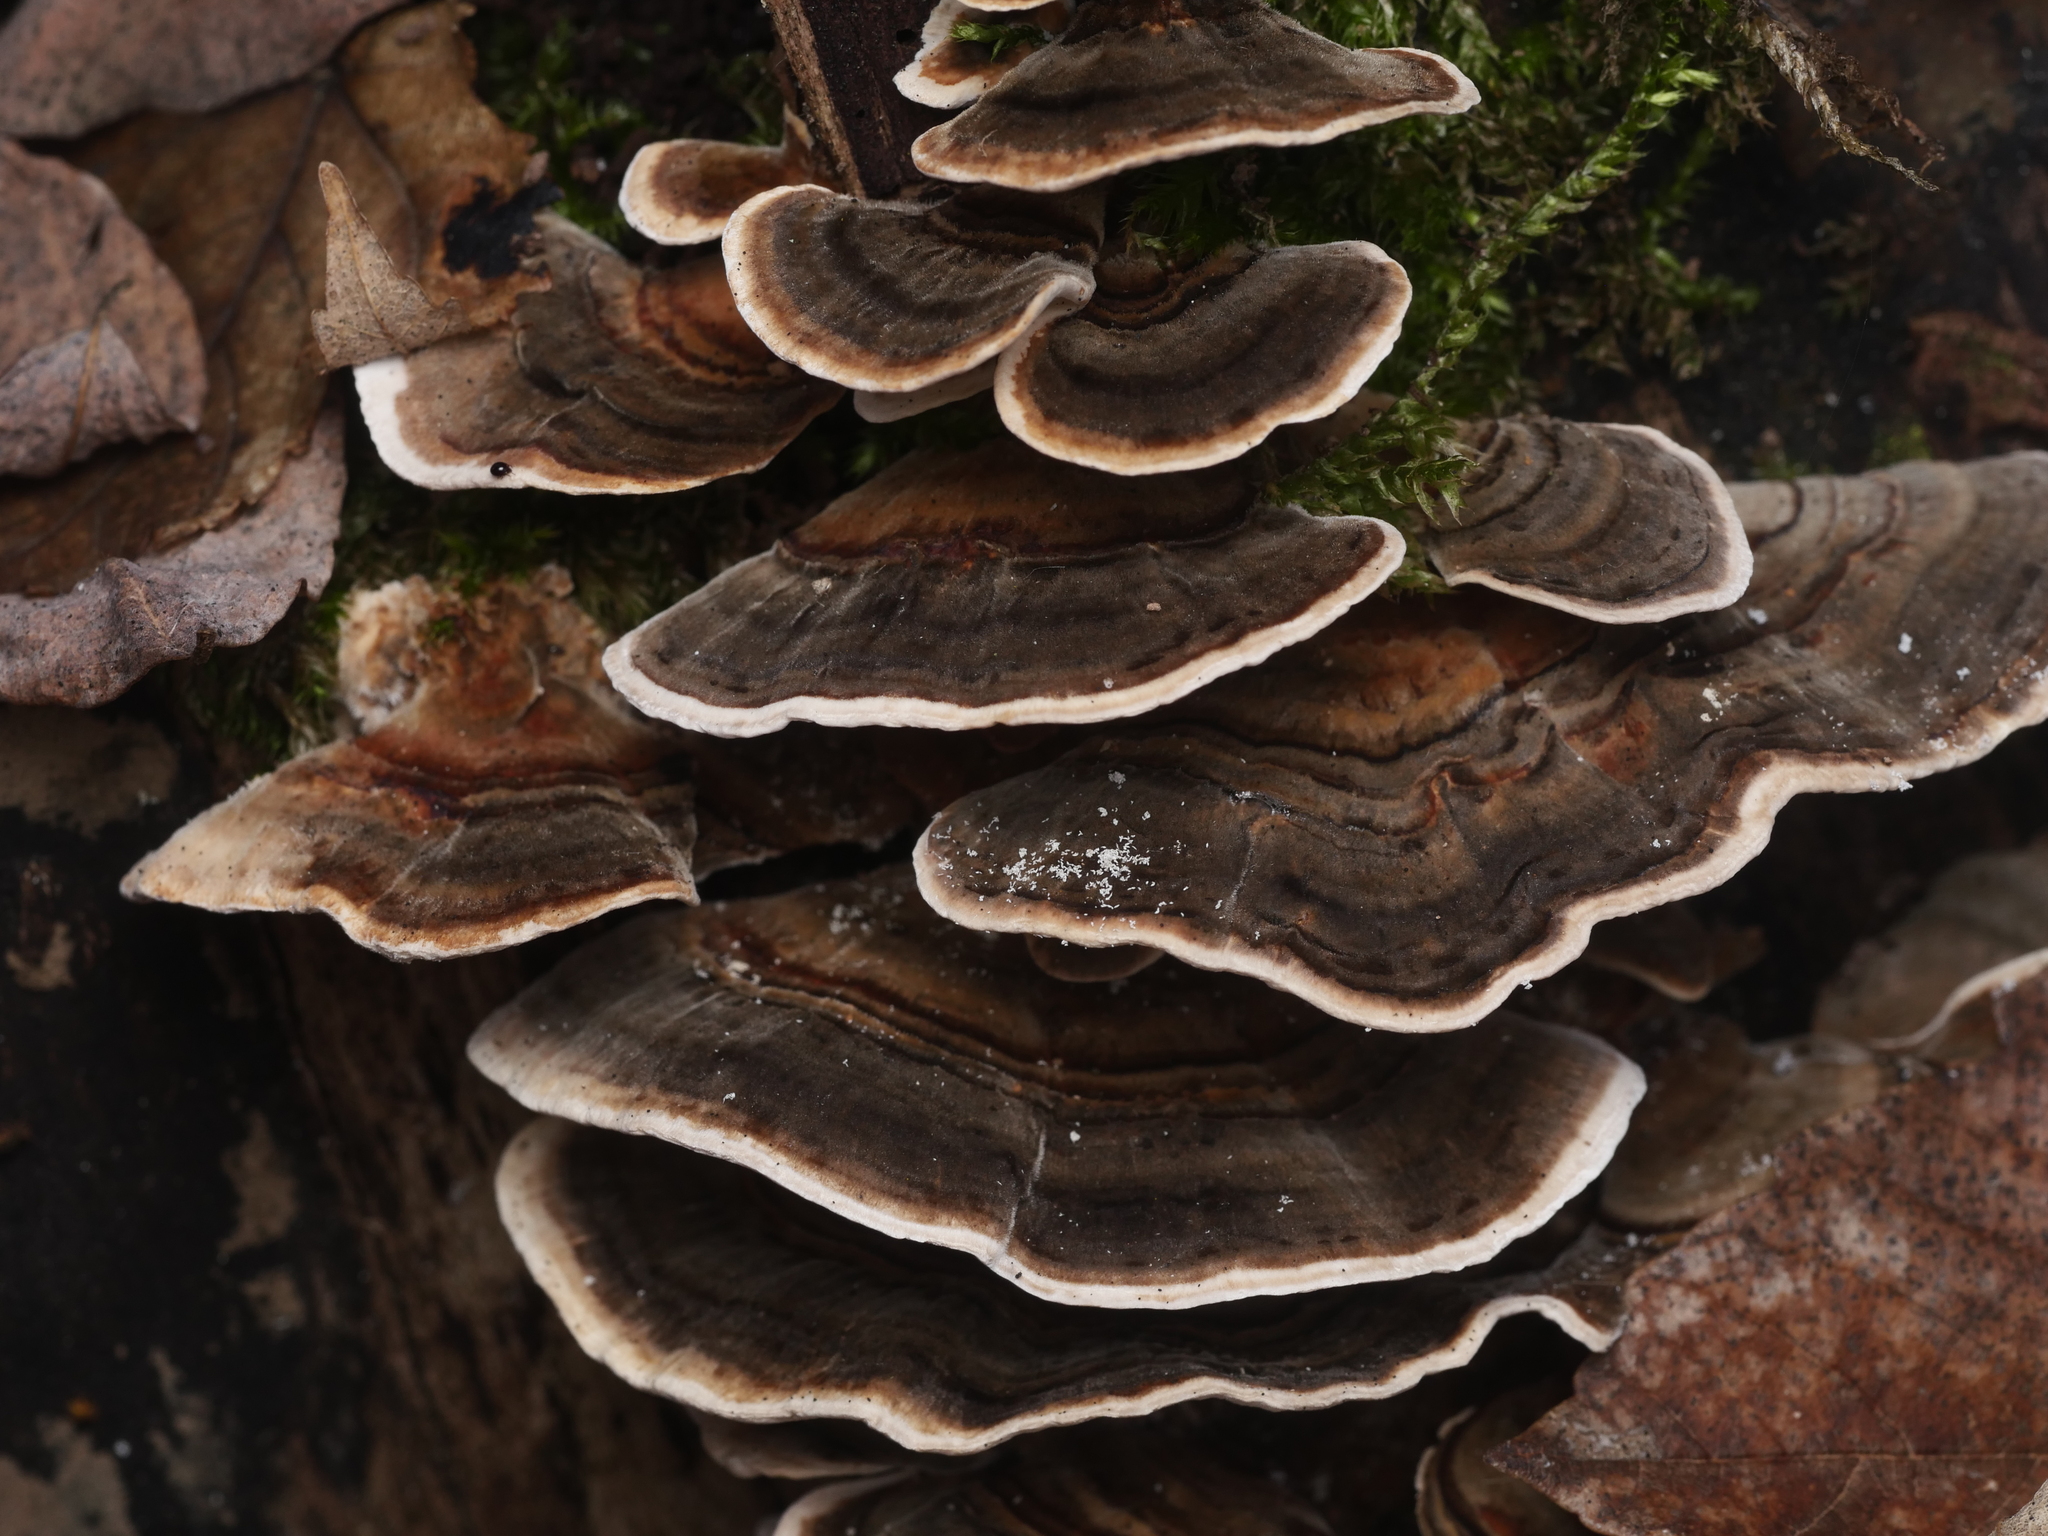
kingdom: Fungi
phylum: Basidiomycota
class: Agaricomycetes
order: Polyporales
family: Polyporaceae
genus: Trametes
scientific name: Trametes versicolor
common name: Turkeytail
